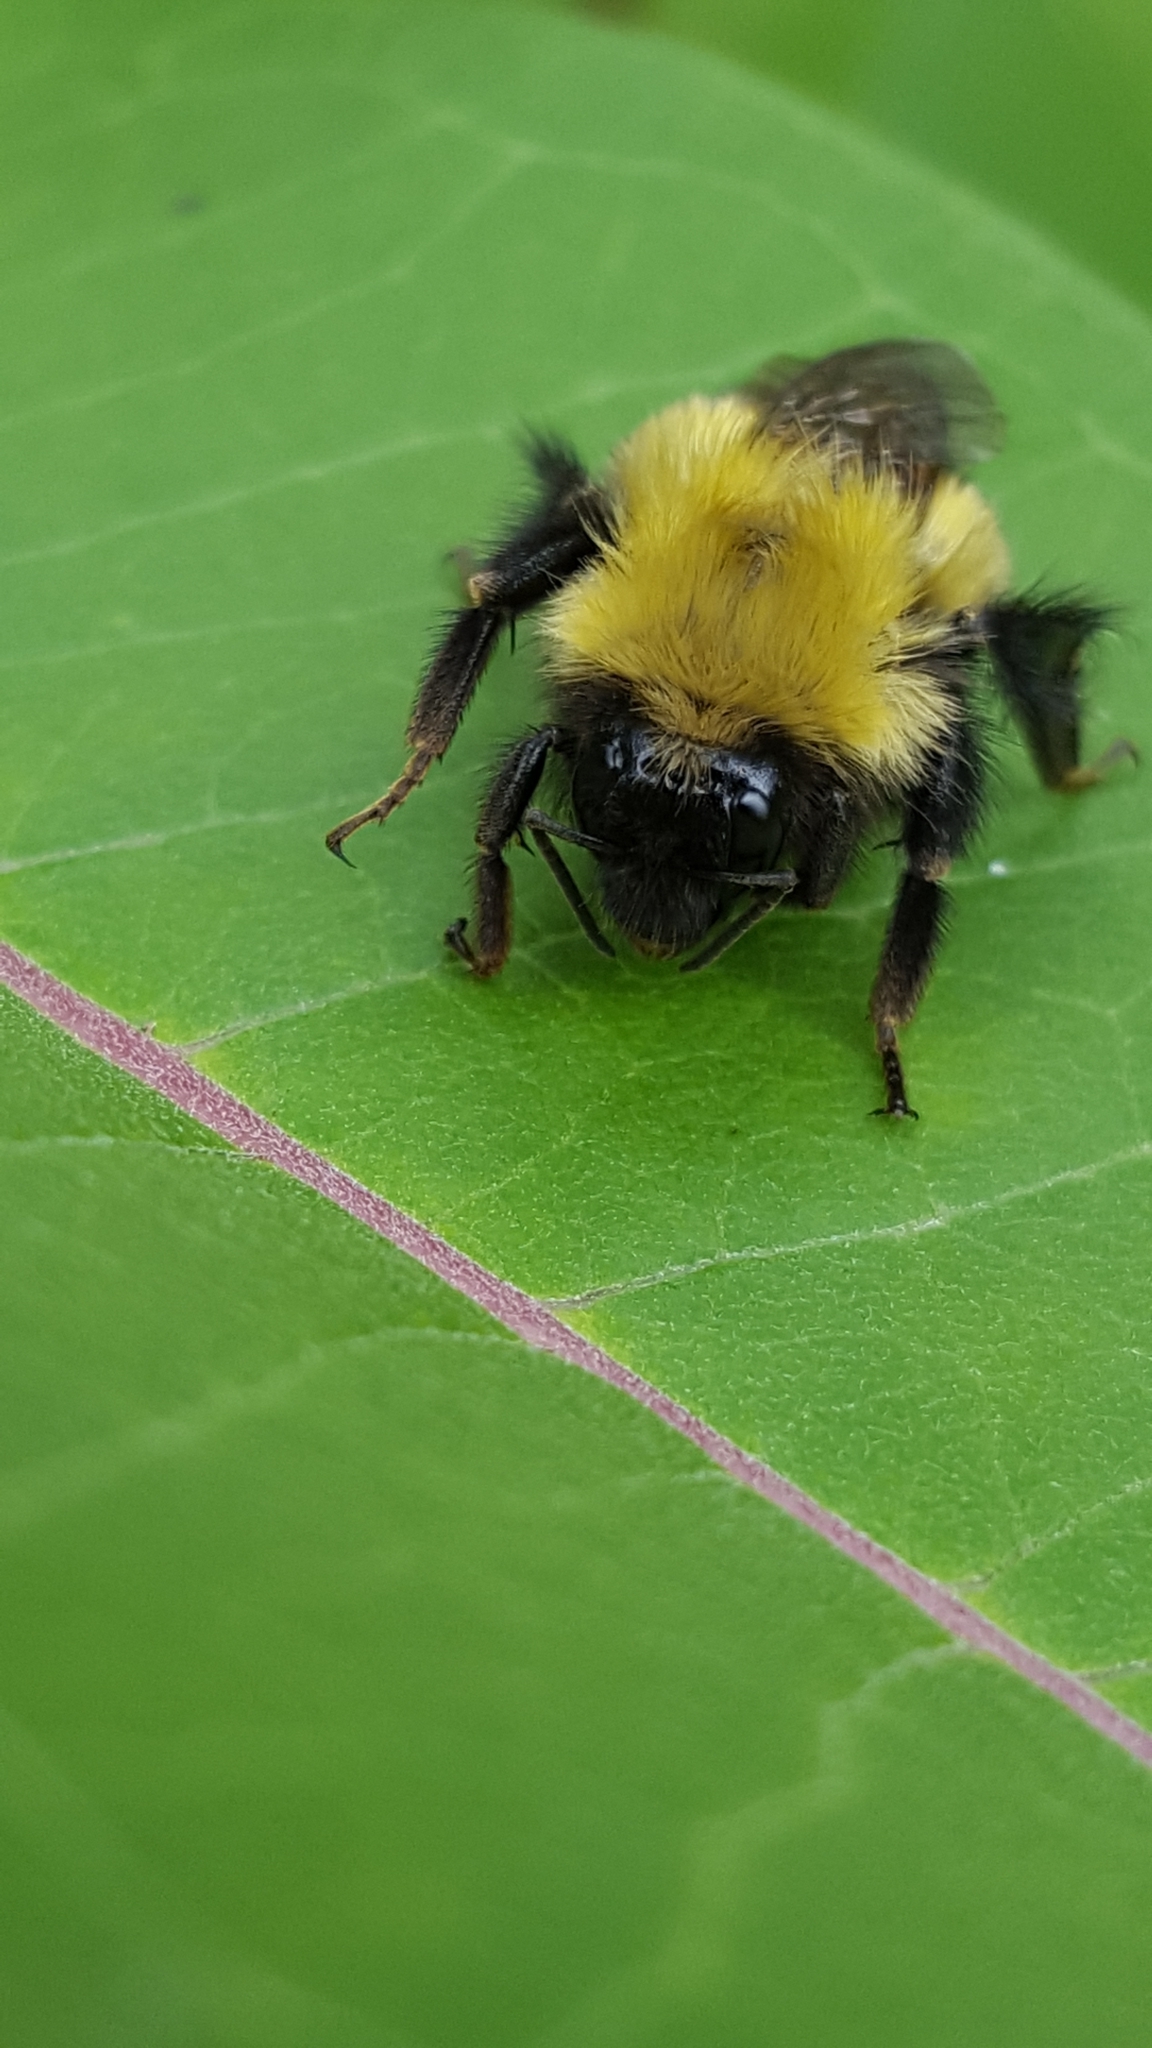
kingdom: Animalia
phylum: Arthropoda
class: Insecta
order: Hymenoptera
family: Apidae
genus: Bombus
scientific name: Bombus perplexus
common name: Confusing bumble bee
